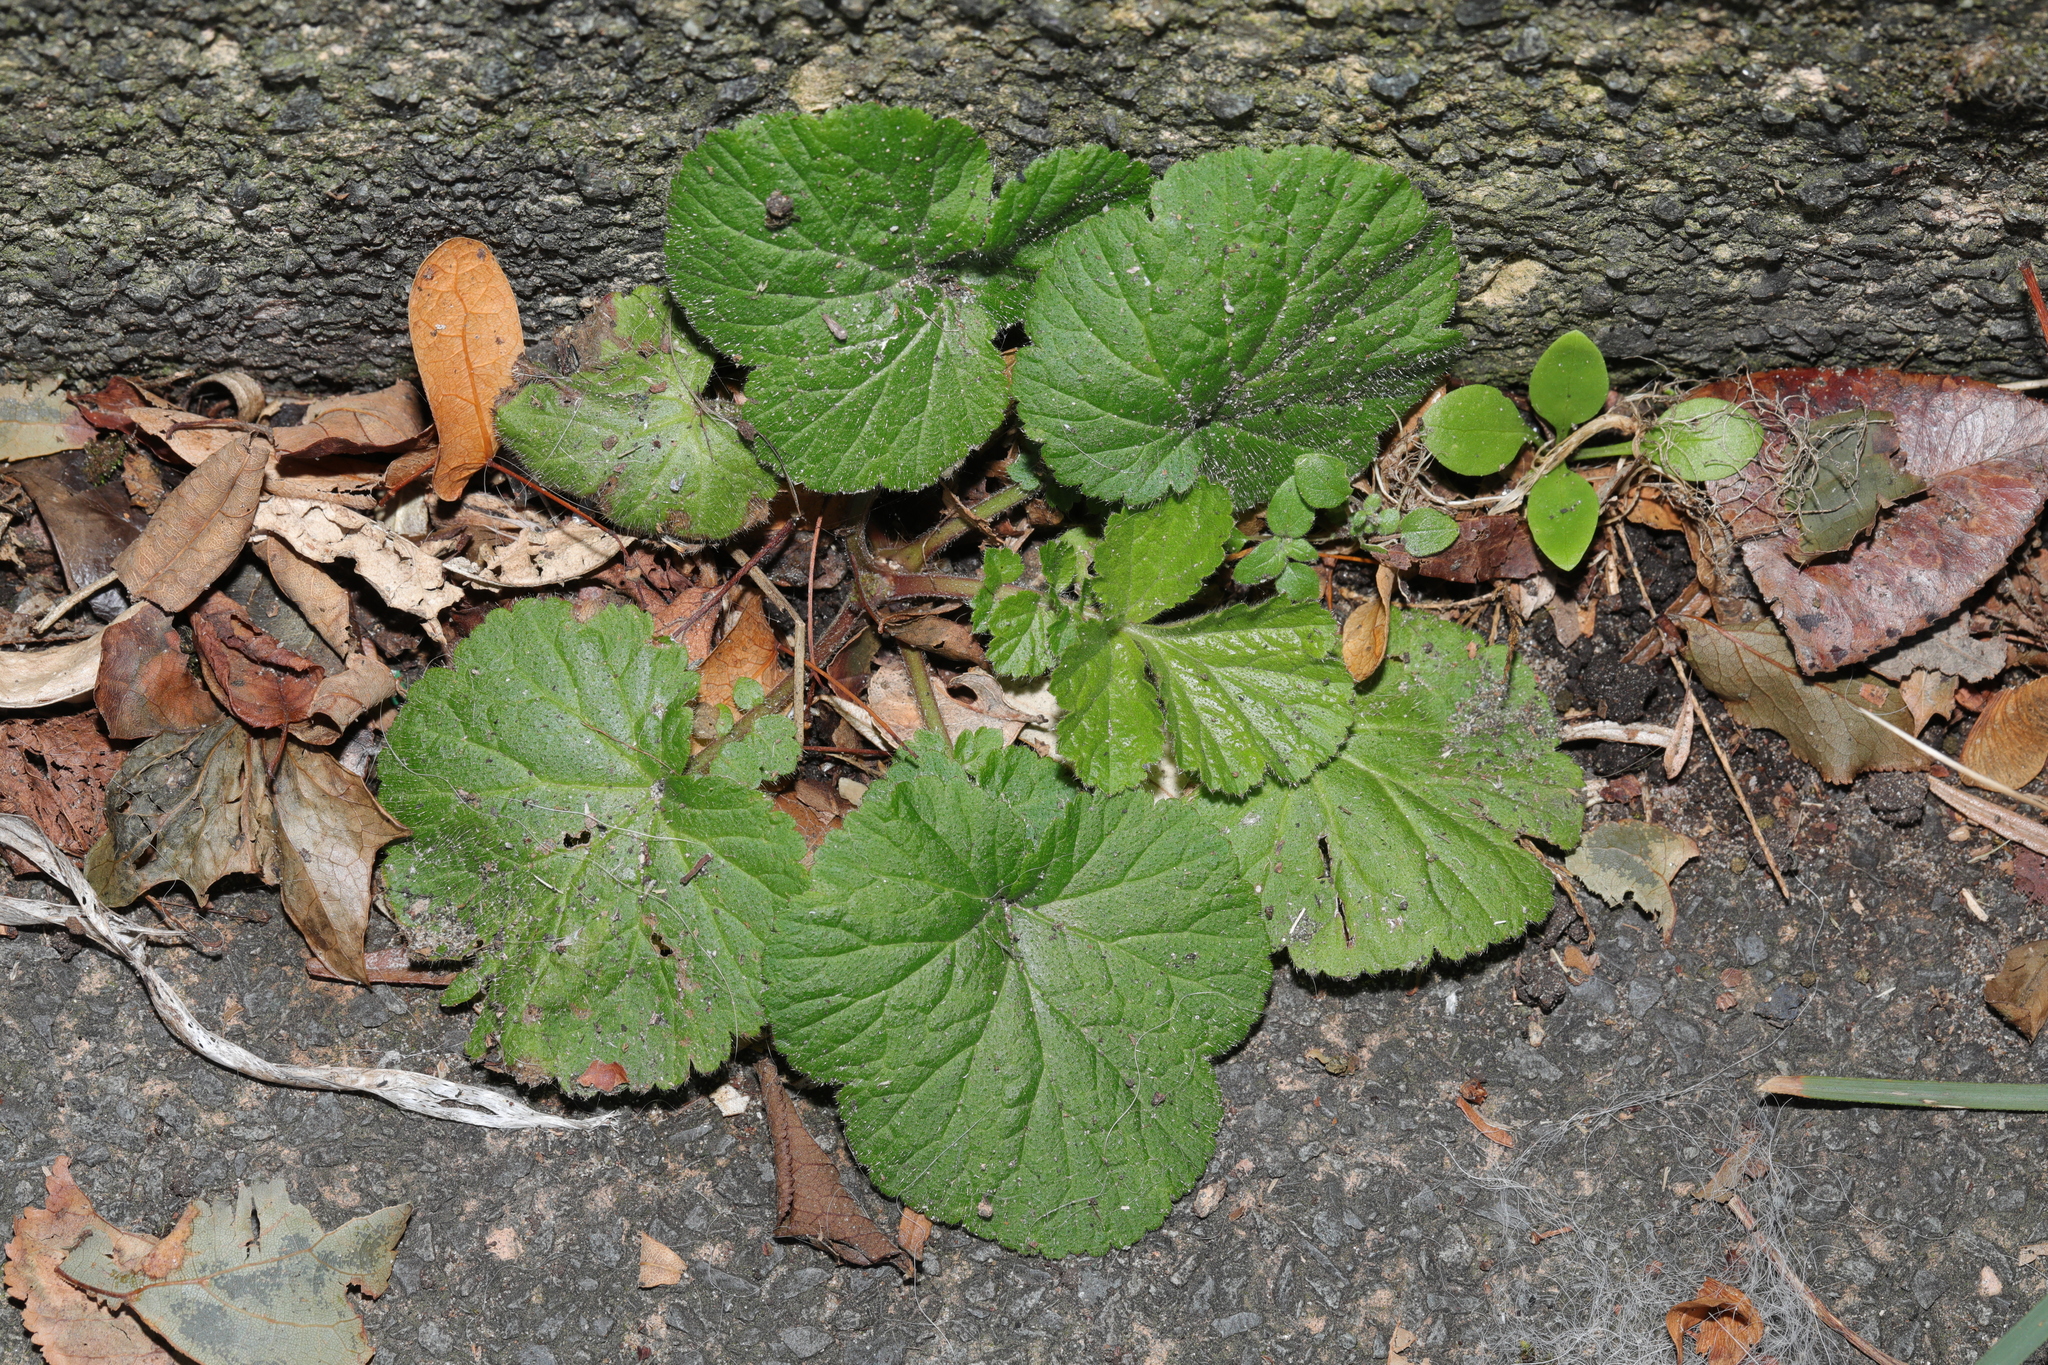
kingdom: Plantae
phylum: Tracheophyta
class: Magnoliopsida
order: Rosales
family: Rosaceae
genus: Geum
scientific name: Geum urbanum
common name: Wood avens
